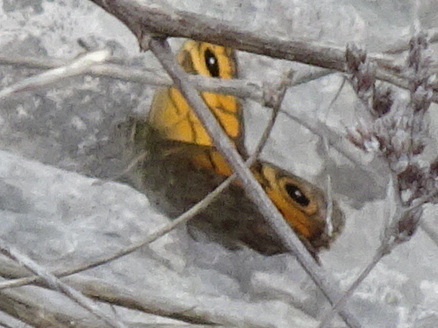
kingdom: Animalia
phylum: Arthropoda
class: Insecta
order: Lepidoptera
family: Nymphalidae
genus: Pararge
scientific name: Pararge Lasiommata megera
